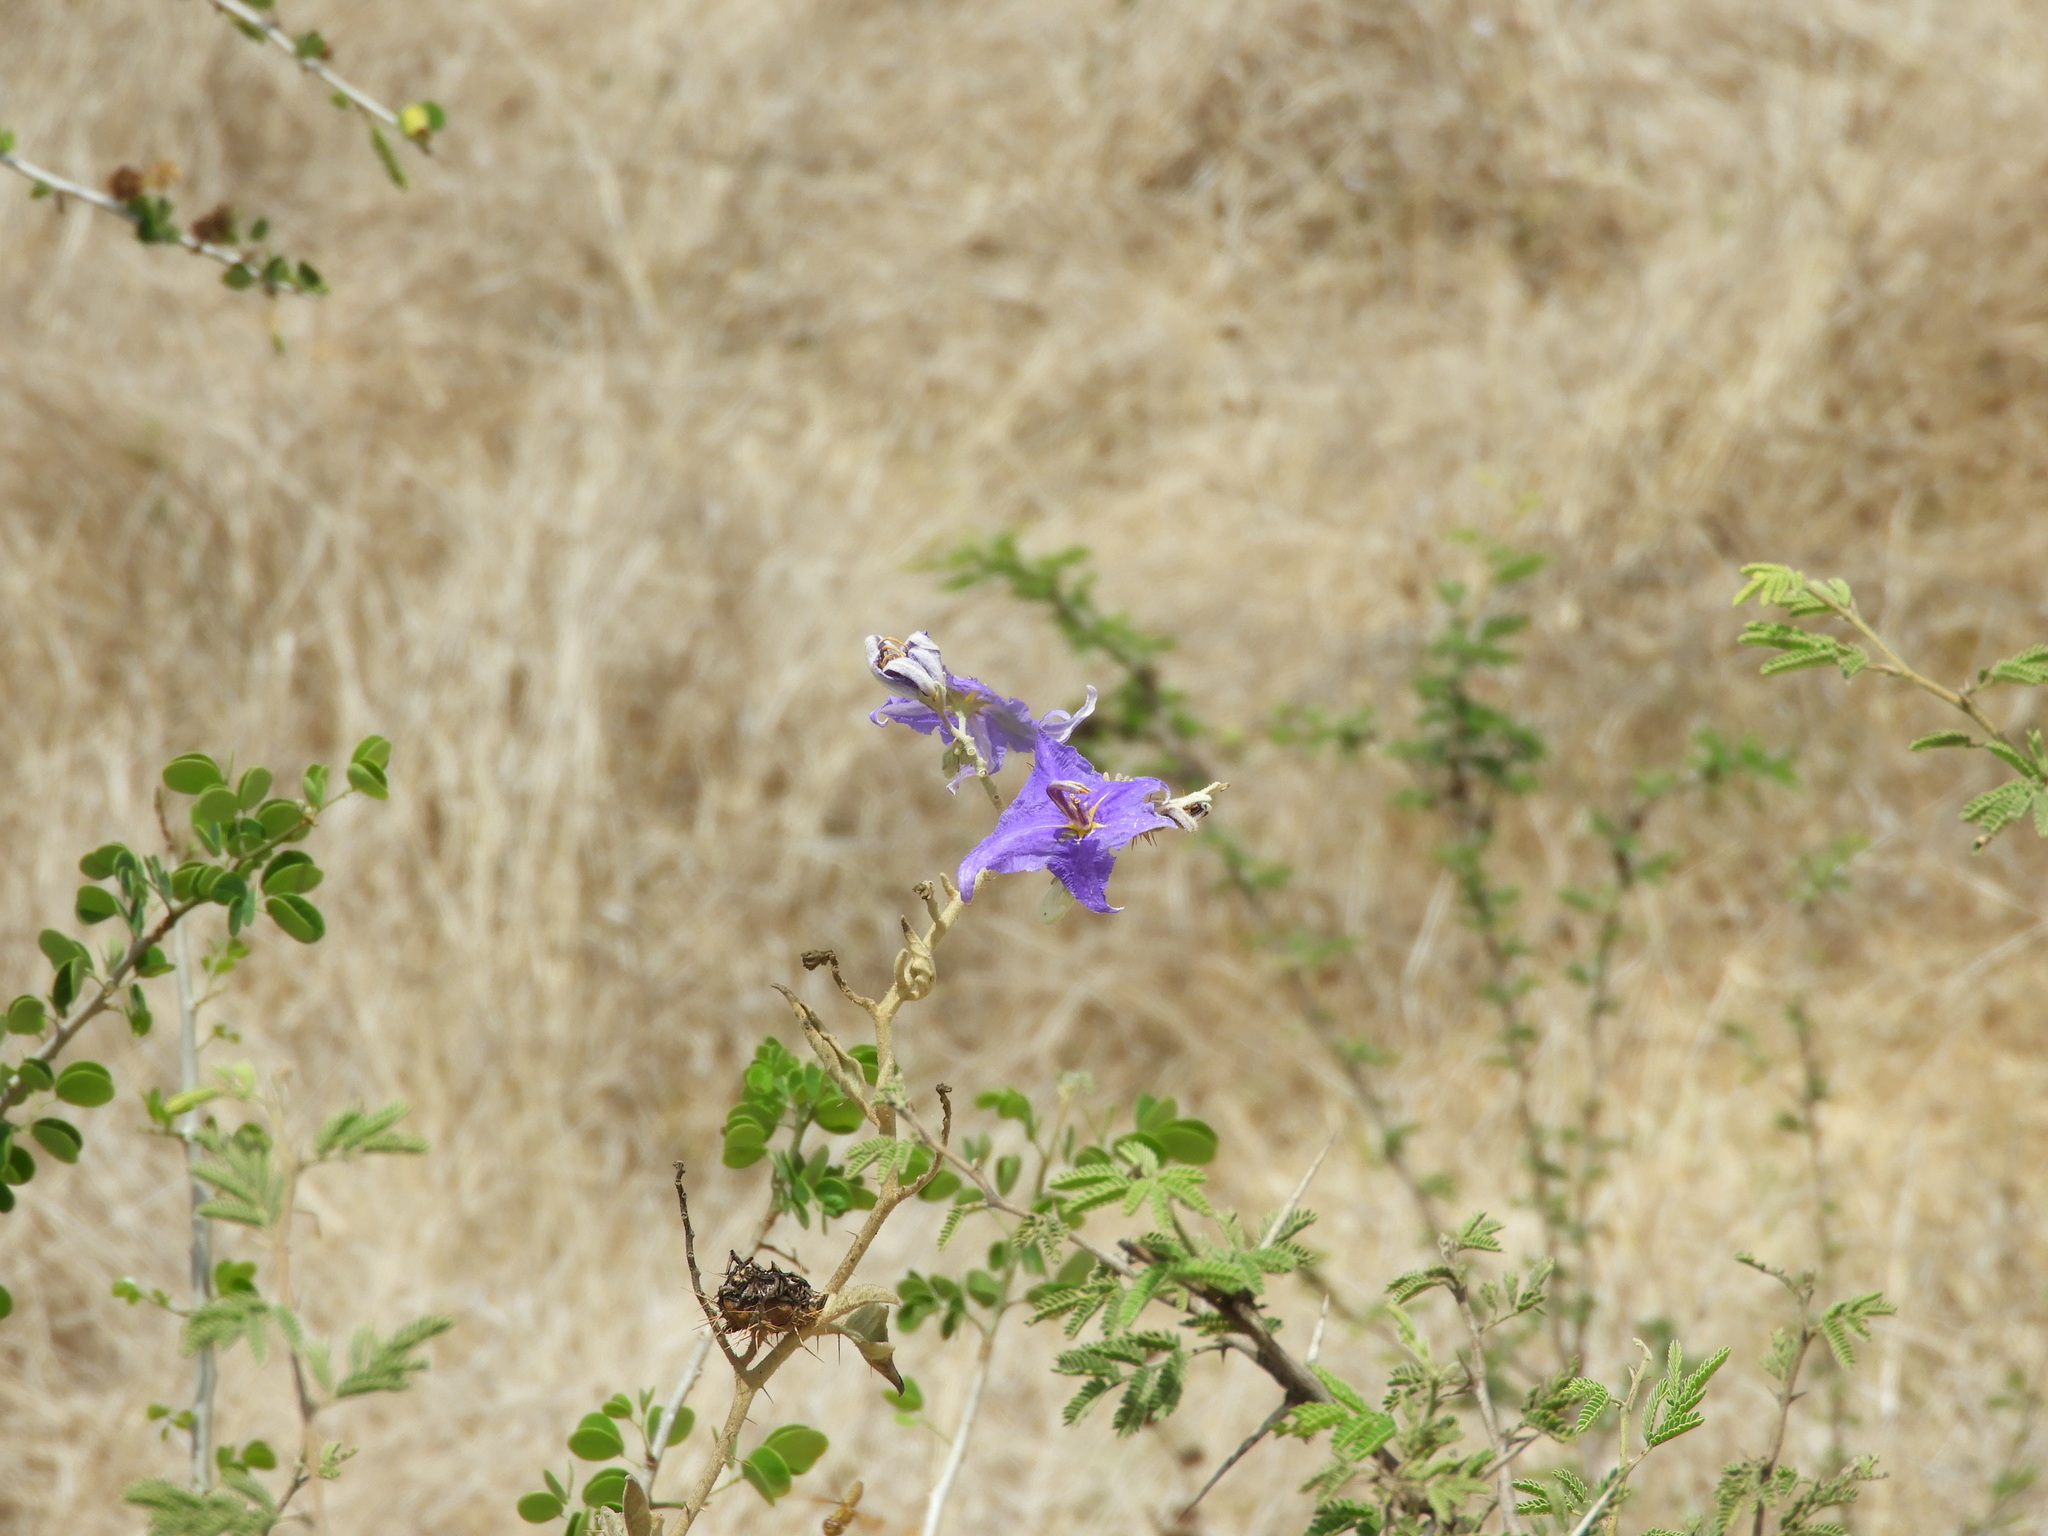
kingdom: Plantae
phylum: Tracheophyta
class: Magnoliopsida
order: Solanales
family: Solanaceae
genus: Solanum
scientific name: Solanum houstonii
